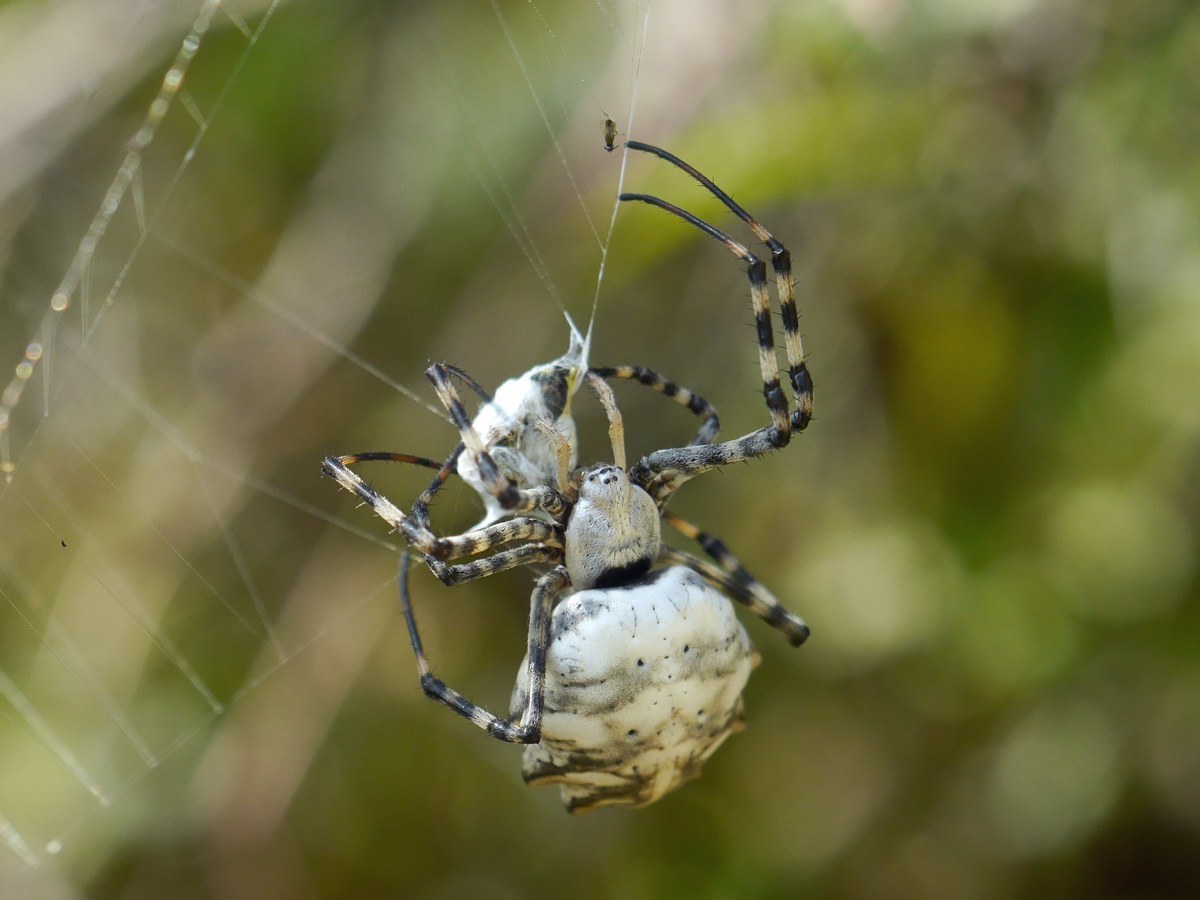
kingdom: Animalia
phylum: Arthropoda
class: Arachnida
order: Araneae
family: Araneidae
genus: Argiope
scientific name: Argiope lobata
